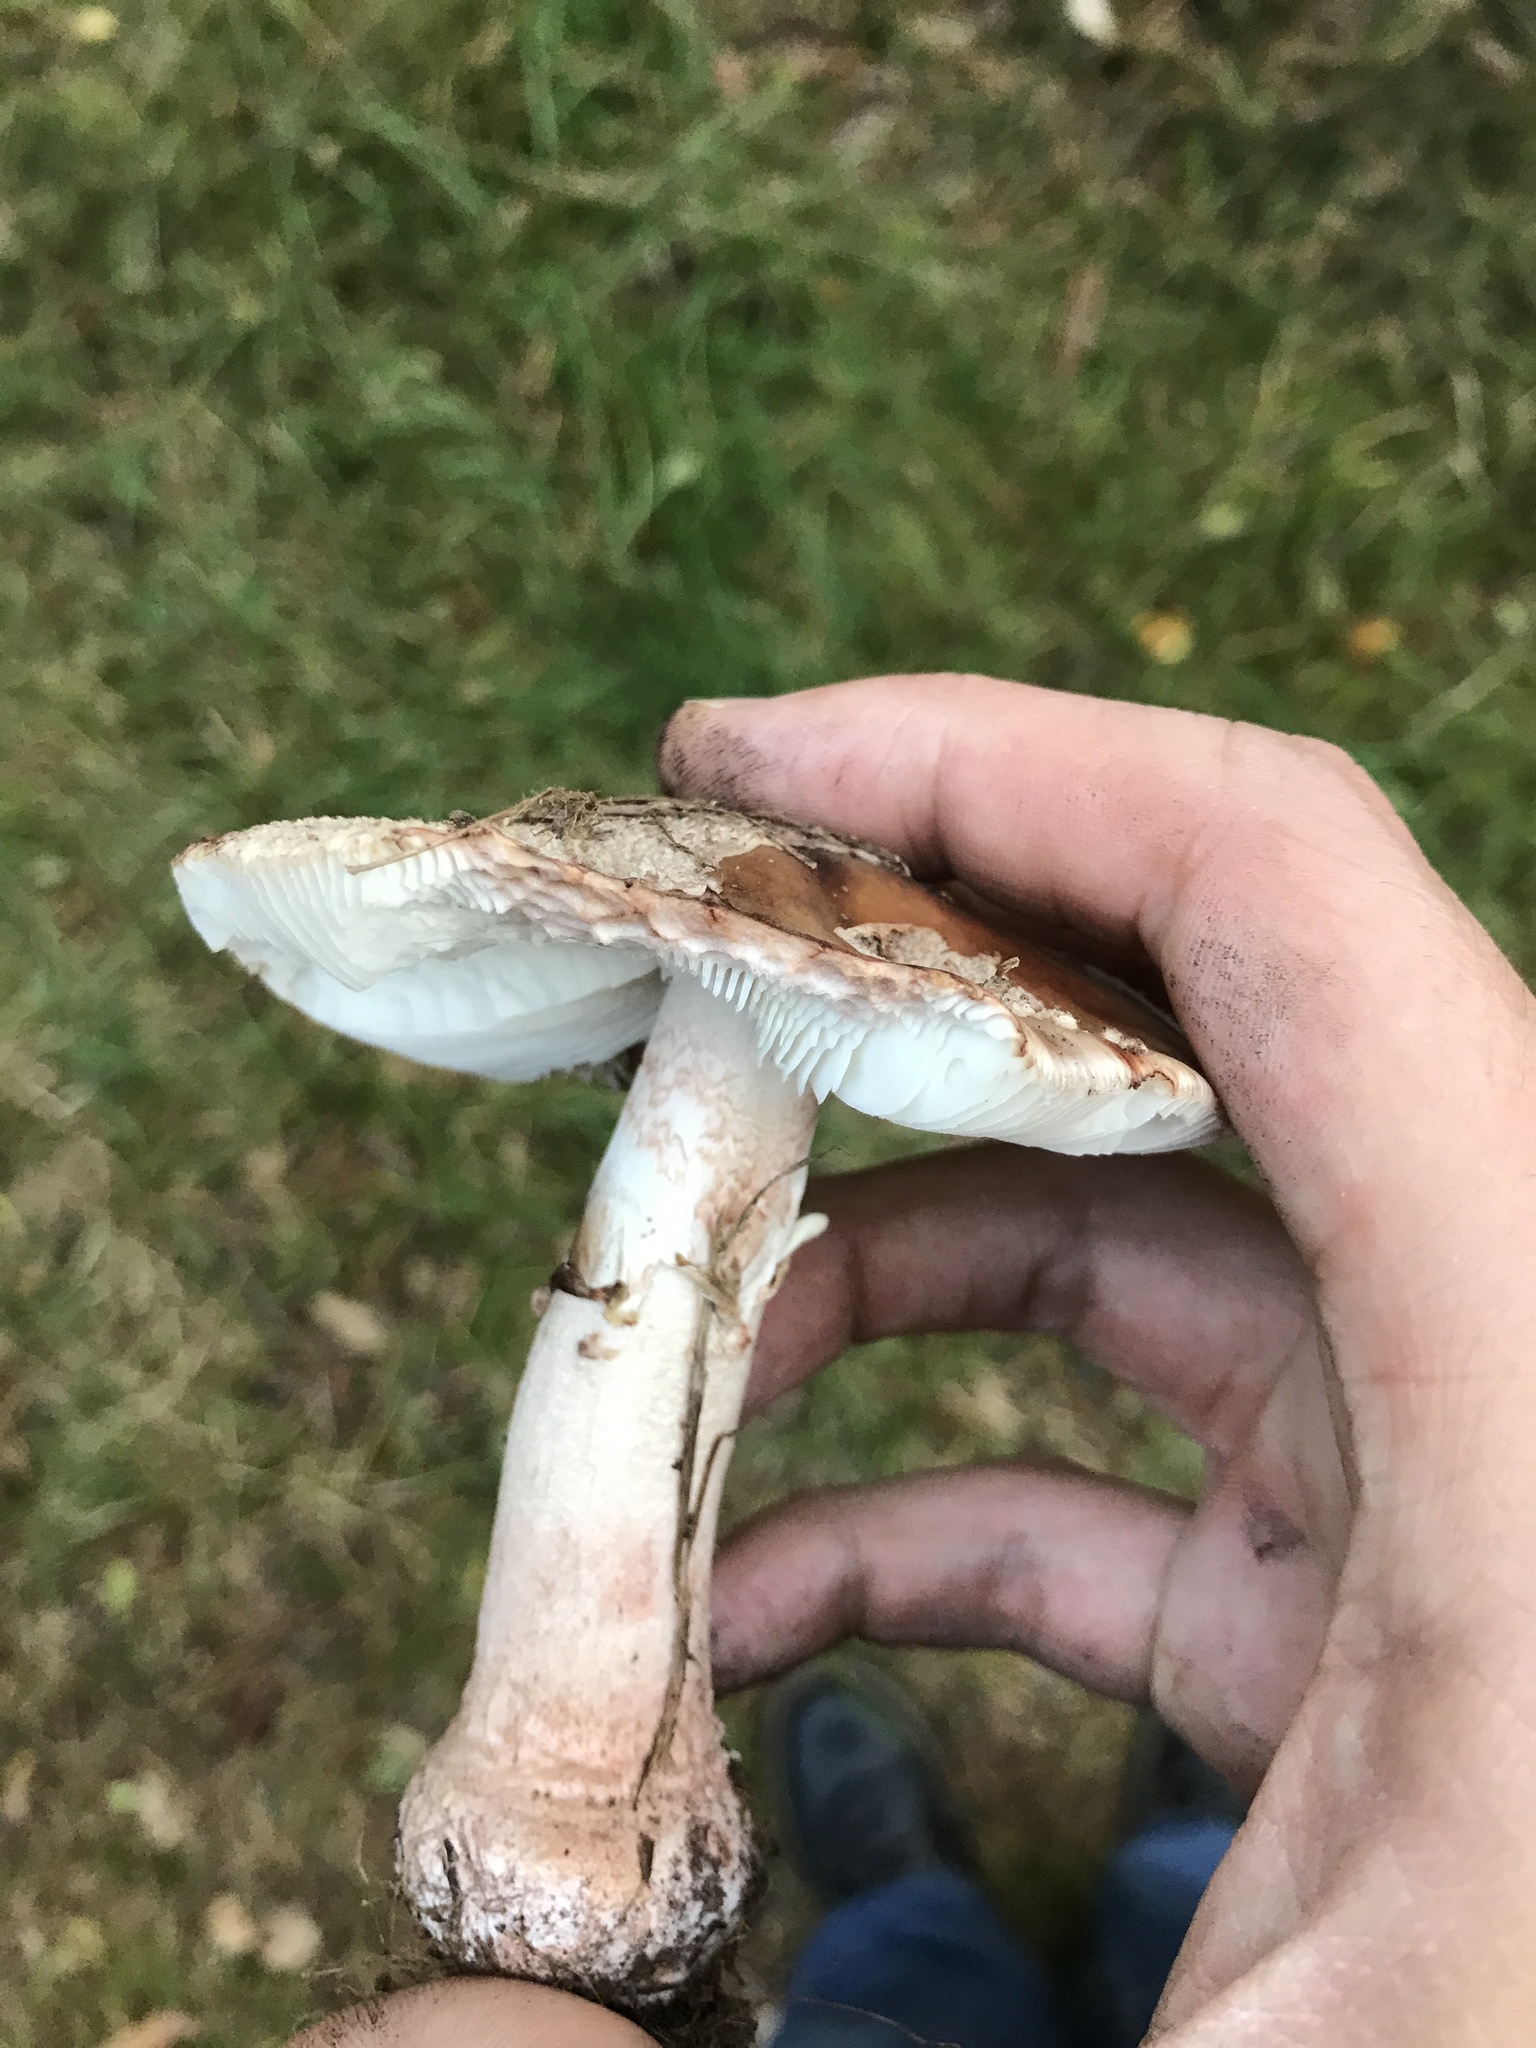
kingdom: Fungi
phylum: Basidiomycota
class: Agaricomycetes
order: Agaricales
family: Amanitaceae
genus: Amanita
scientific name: Amanita rubescens
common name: Blusher
